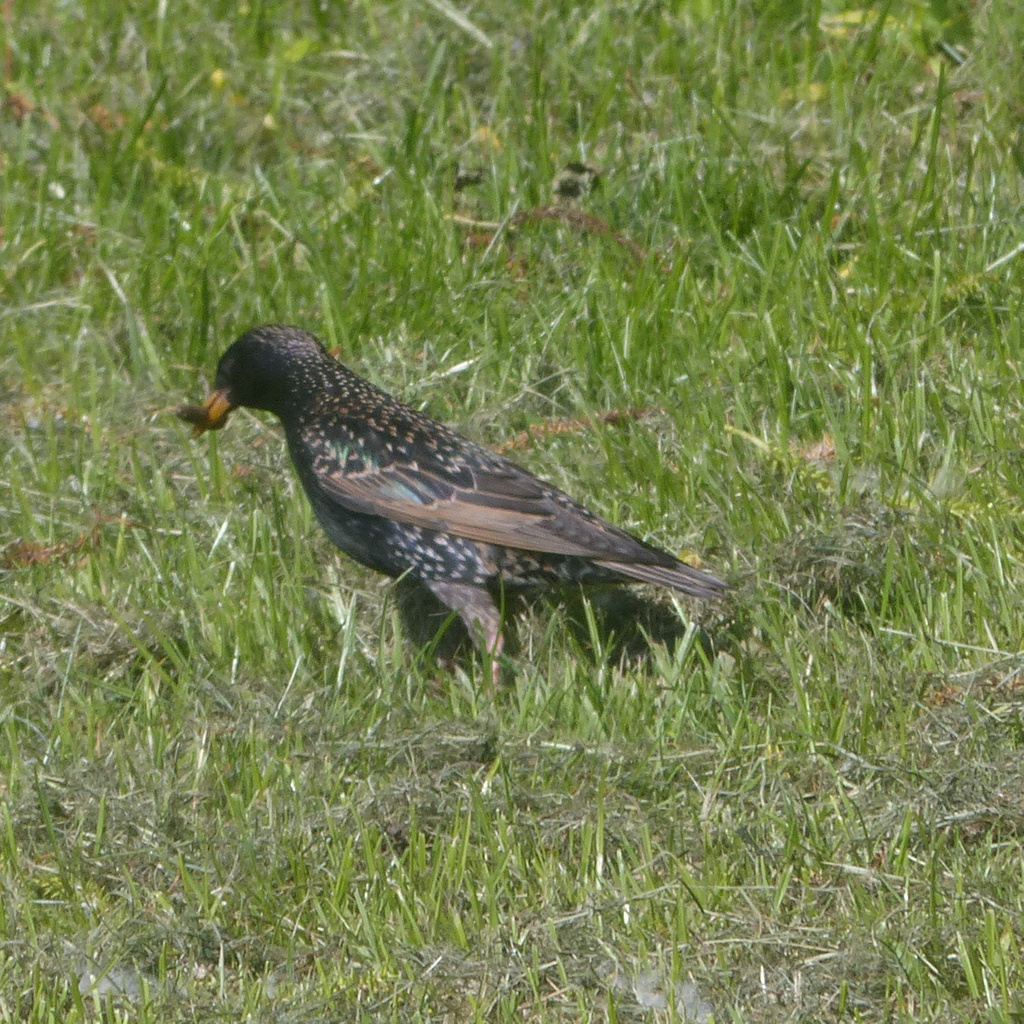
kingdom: Animalia
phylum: Chordata
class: Aves
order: Passeriformes
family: Sturnidae
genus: Sturnus
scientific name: Sturnus vulgaris
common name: Common starling
